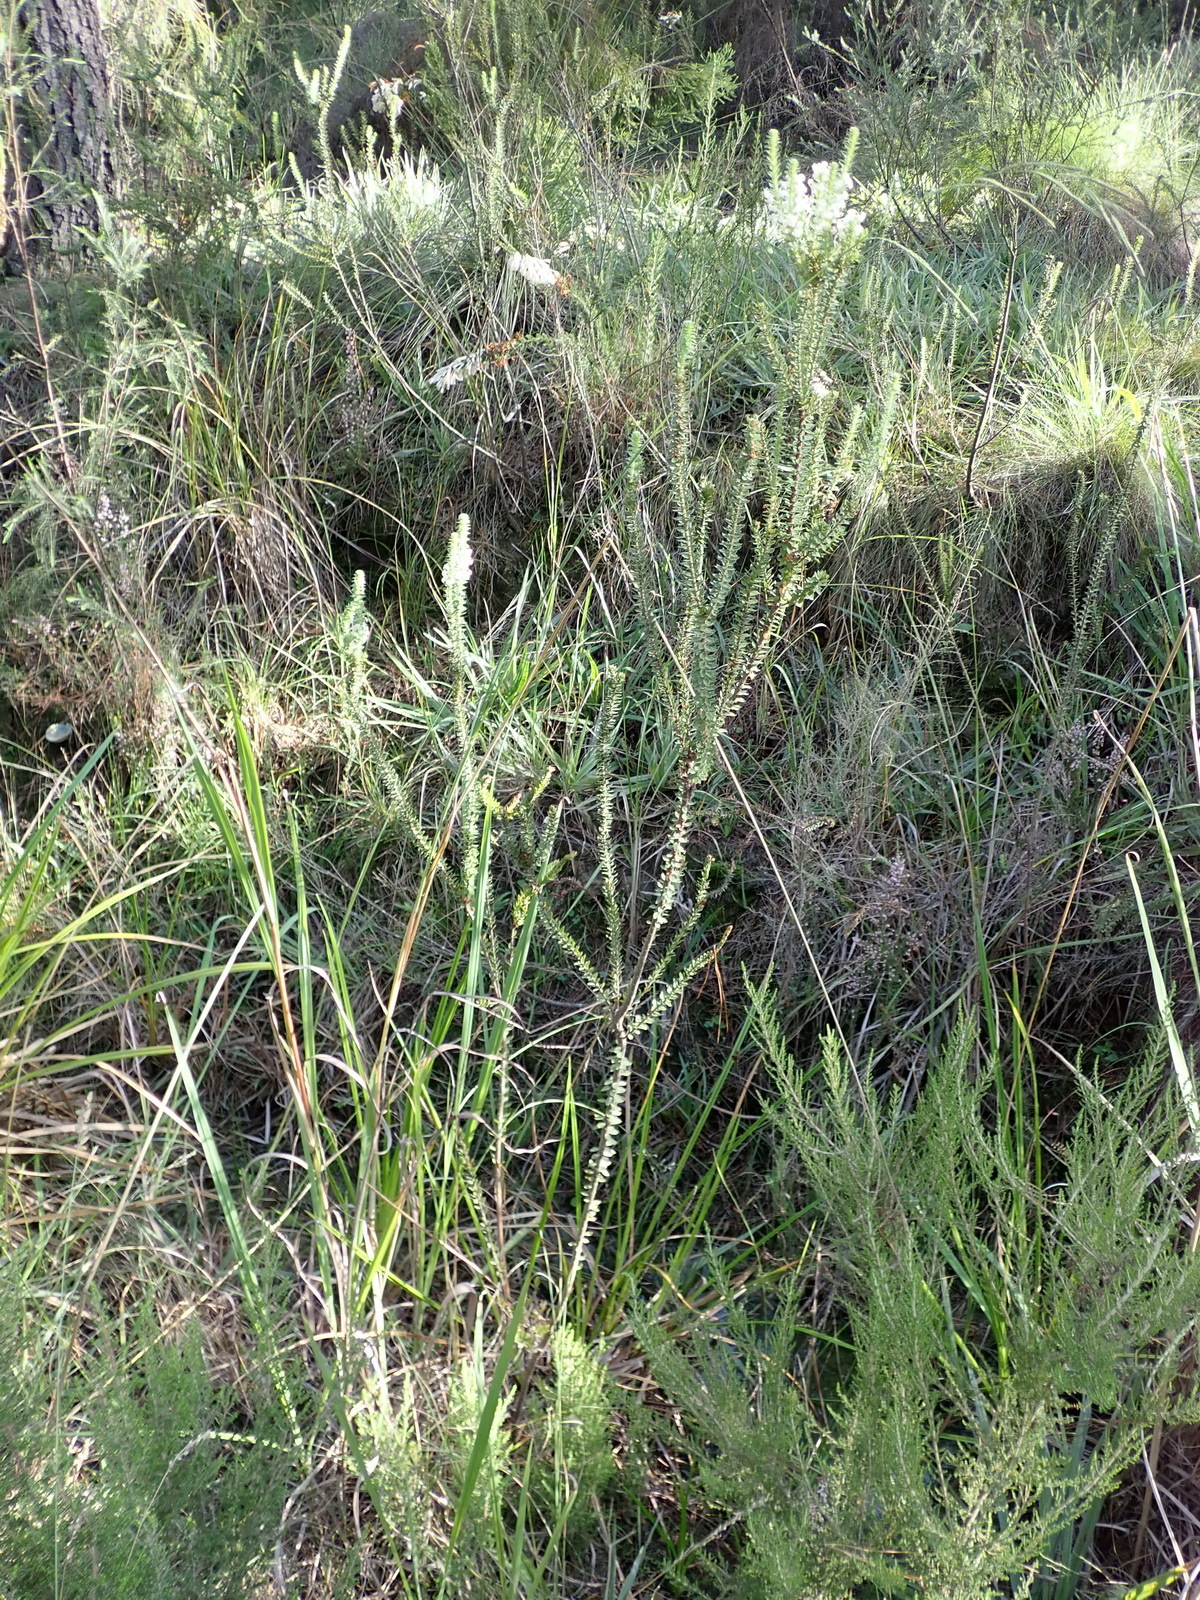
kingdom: Plantae
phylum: Tracheophyta
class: Magnoliopsida
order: Malvales
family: Thymelaeaceae
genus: Struthiola
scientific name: Struthiola hirsuta
